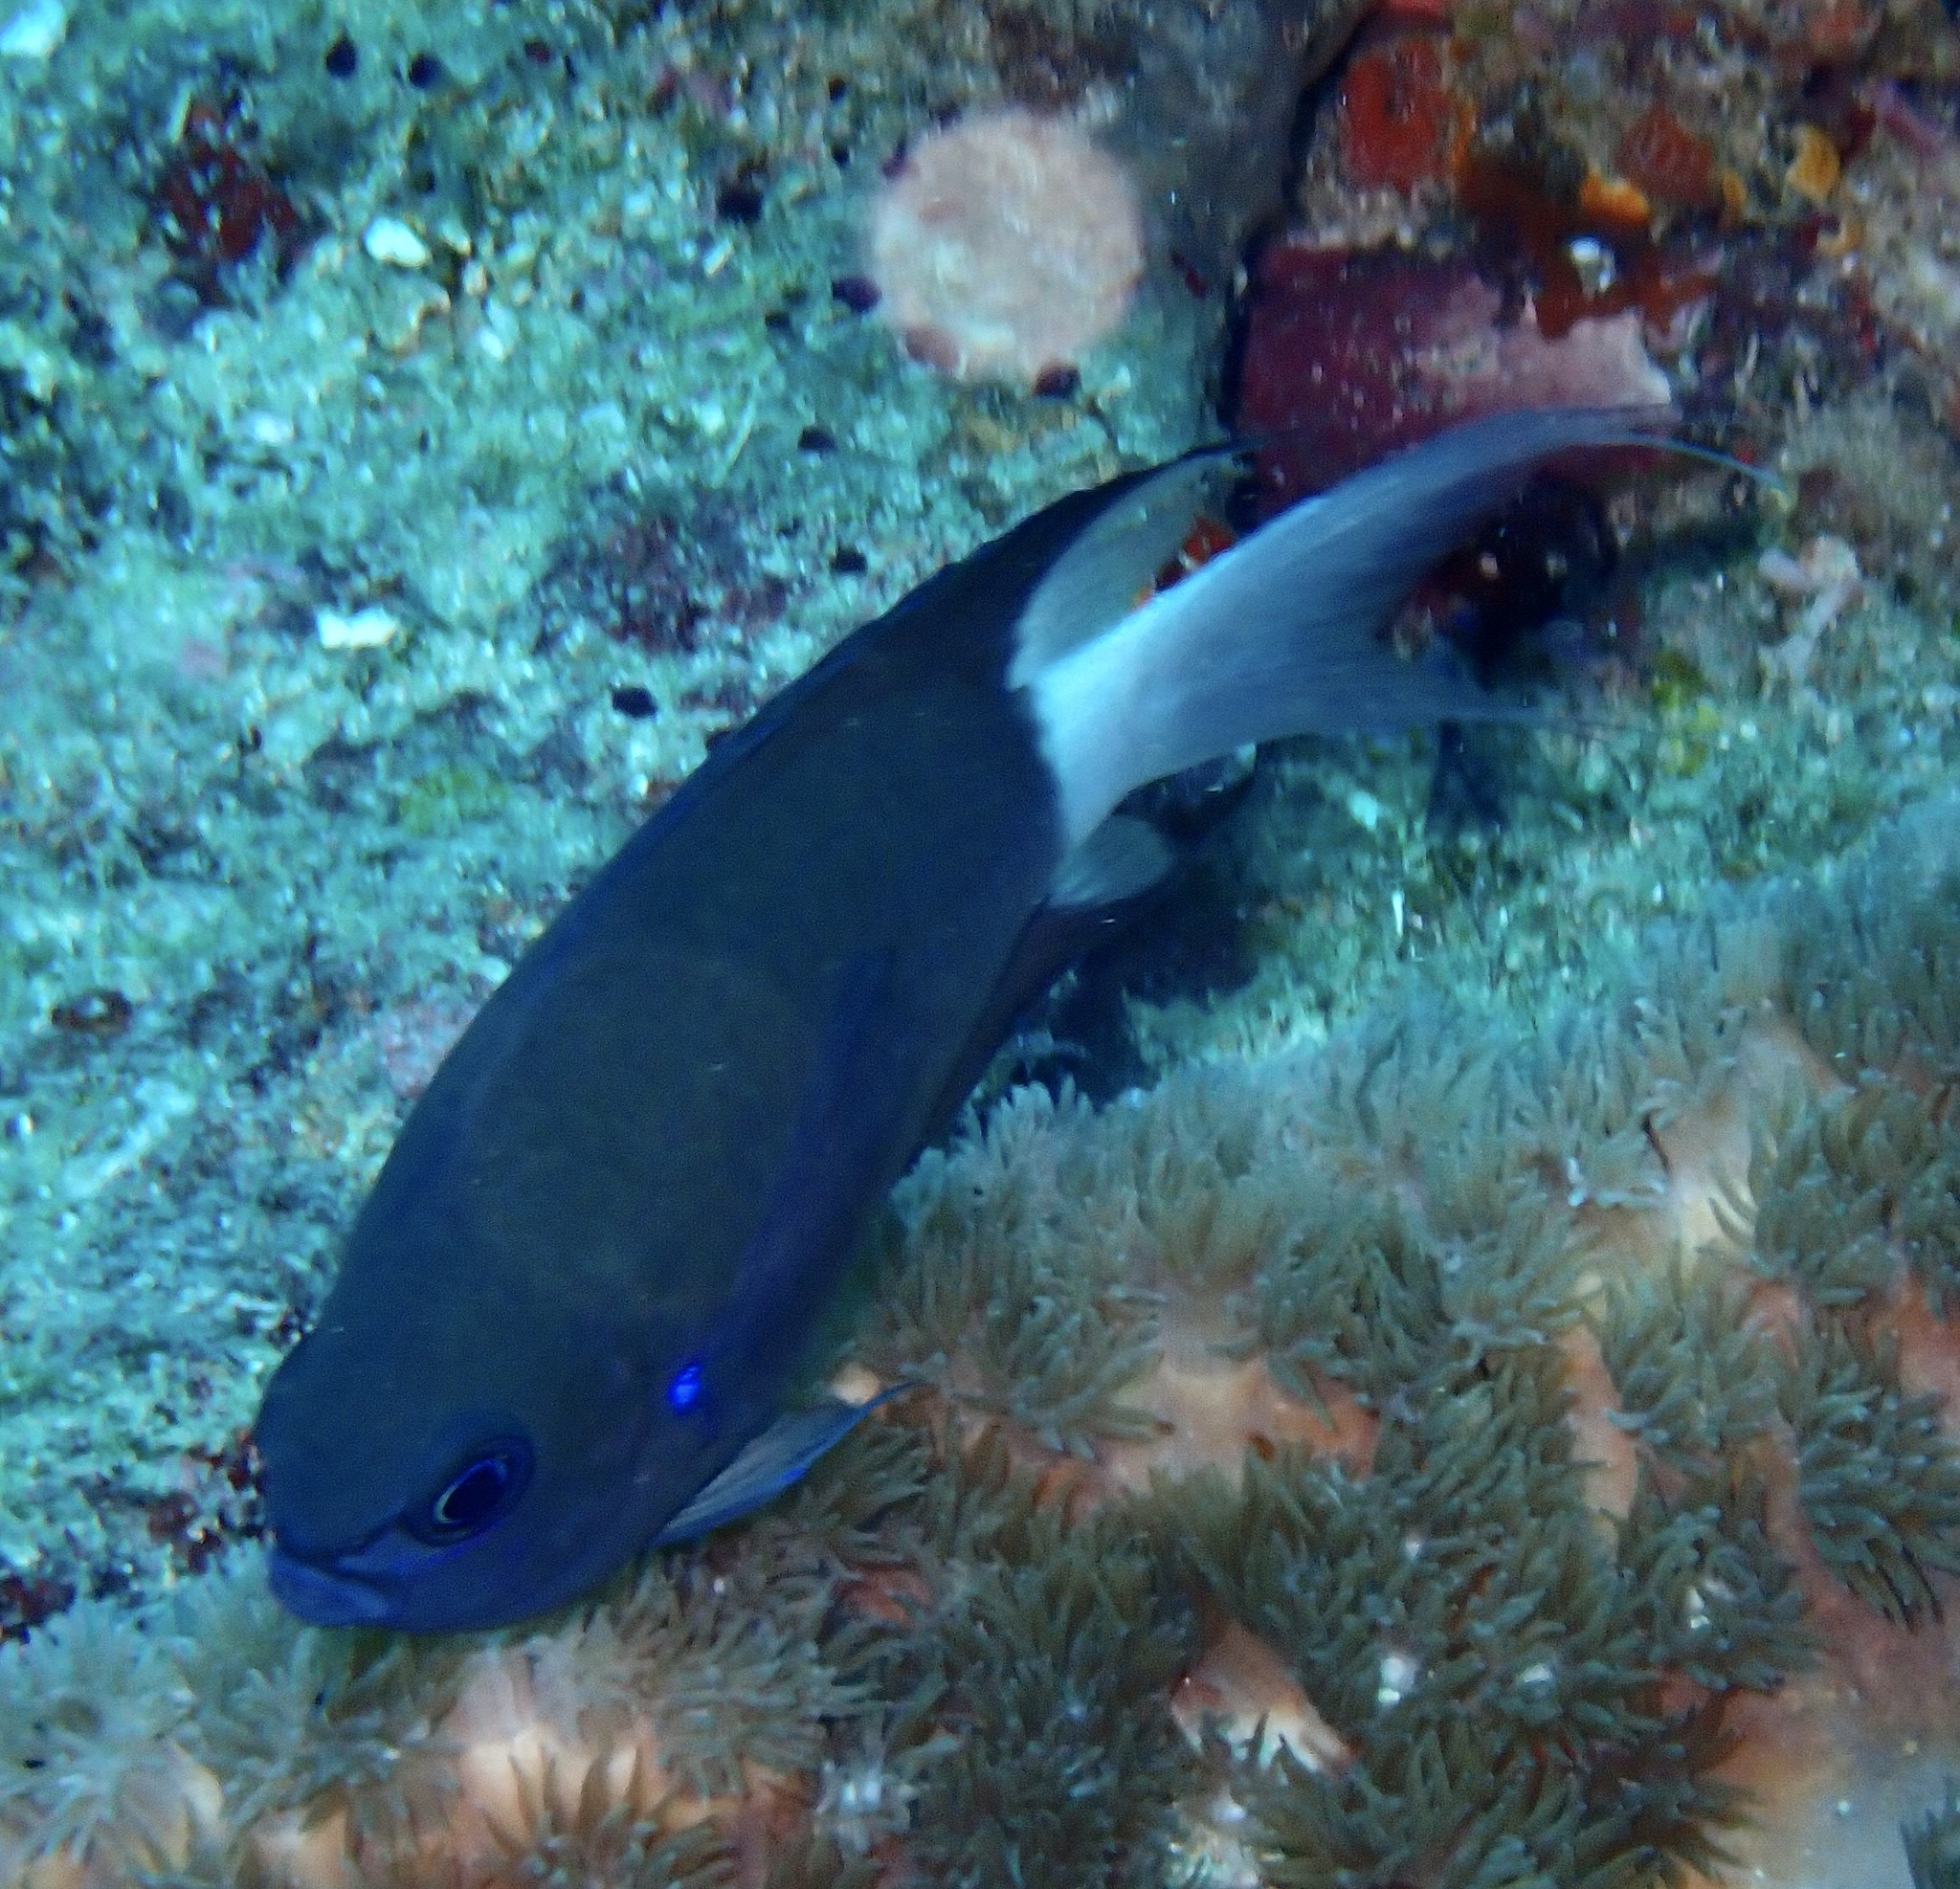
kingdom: Animalia
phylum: Chordata
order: Perciformes
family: Pomacentridae
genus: Chromis
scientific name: Chromis caudalis
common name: Blue-axil chromis
